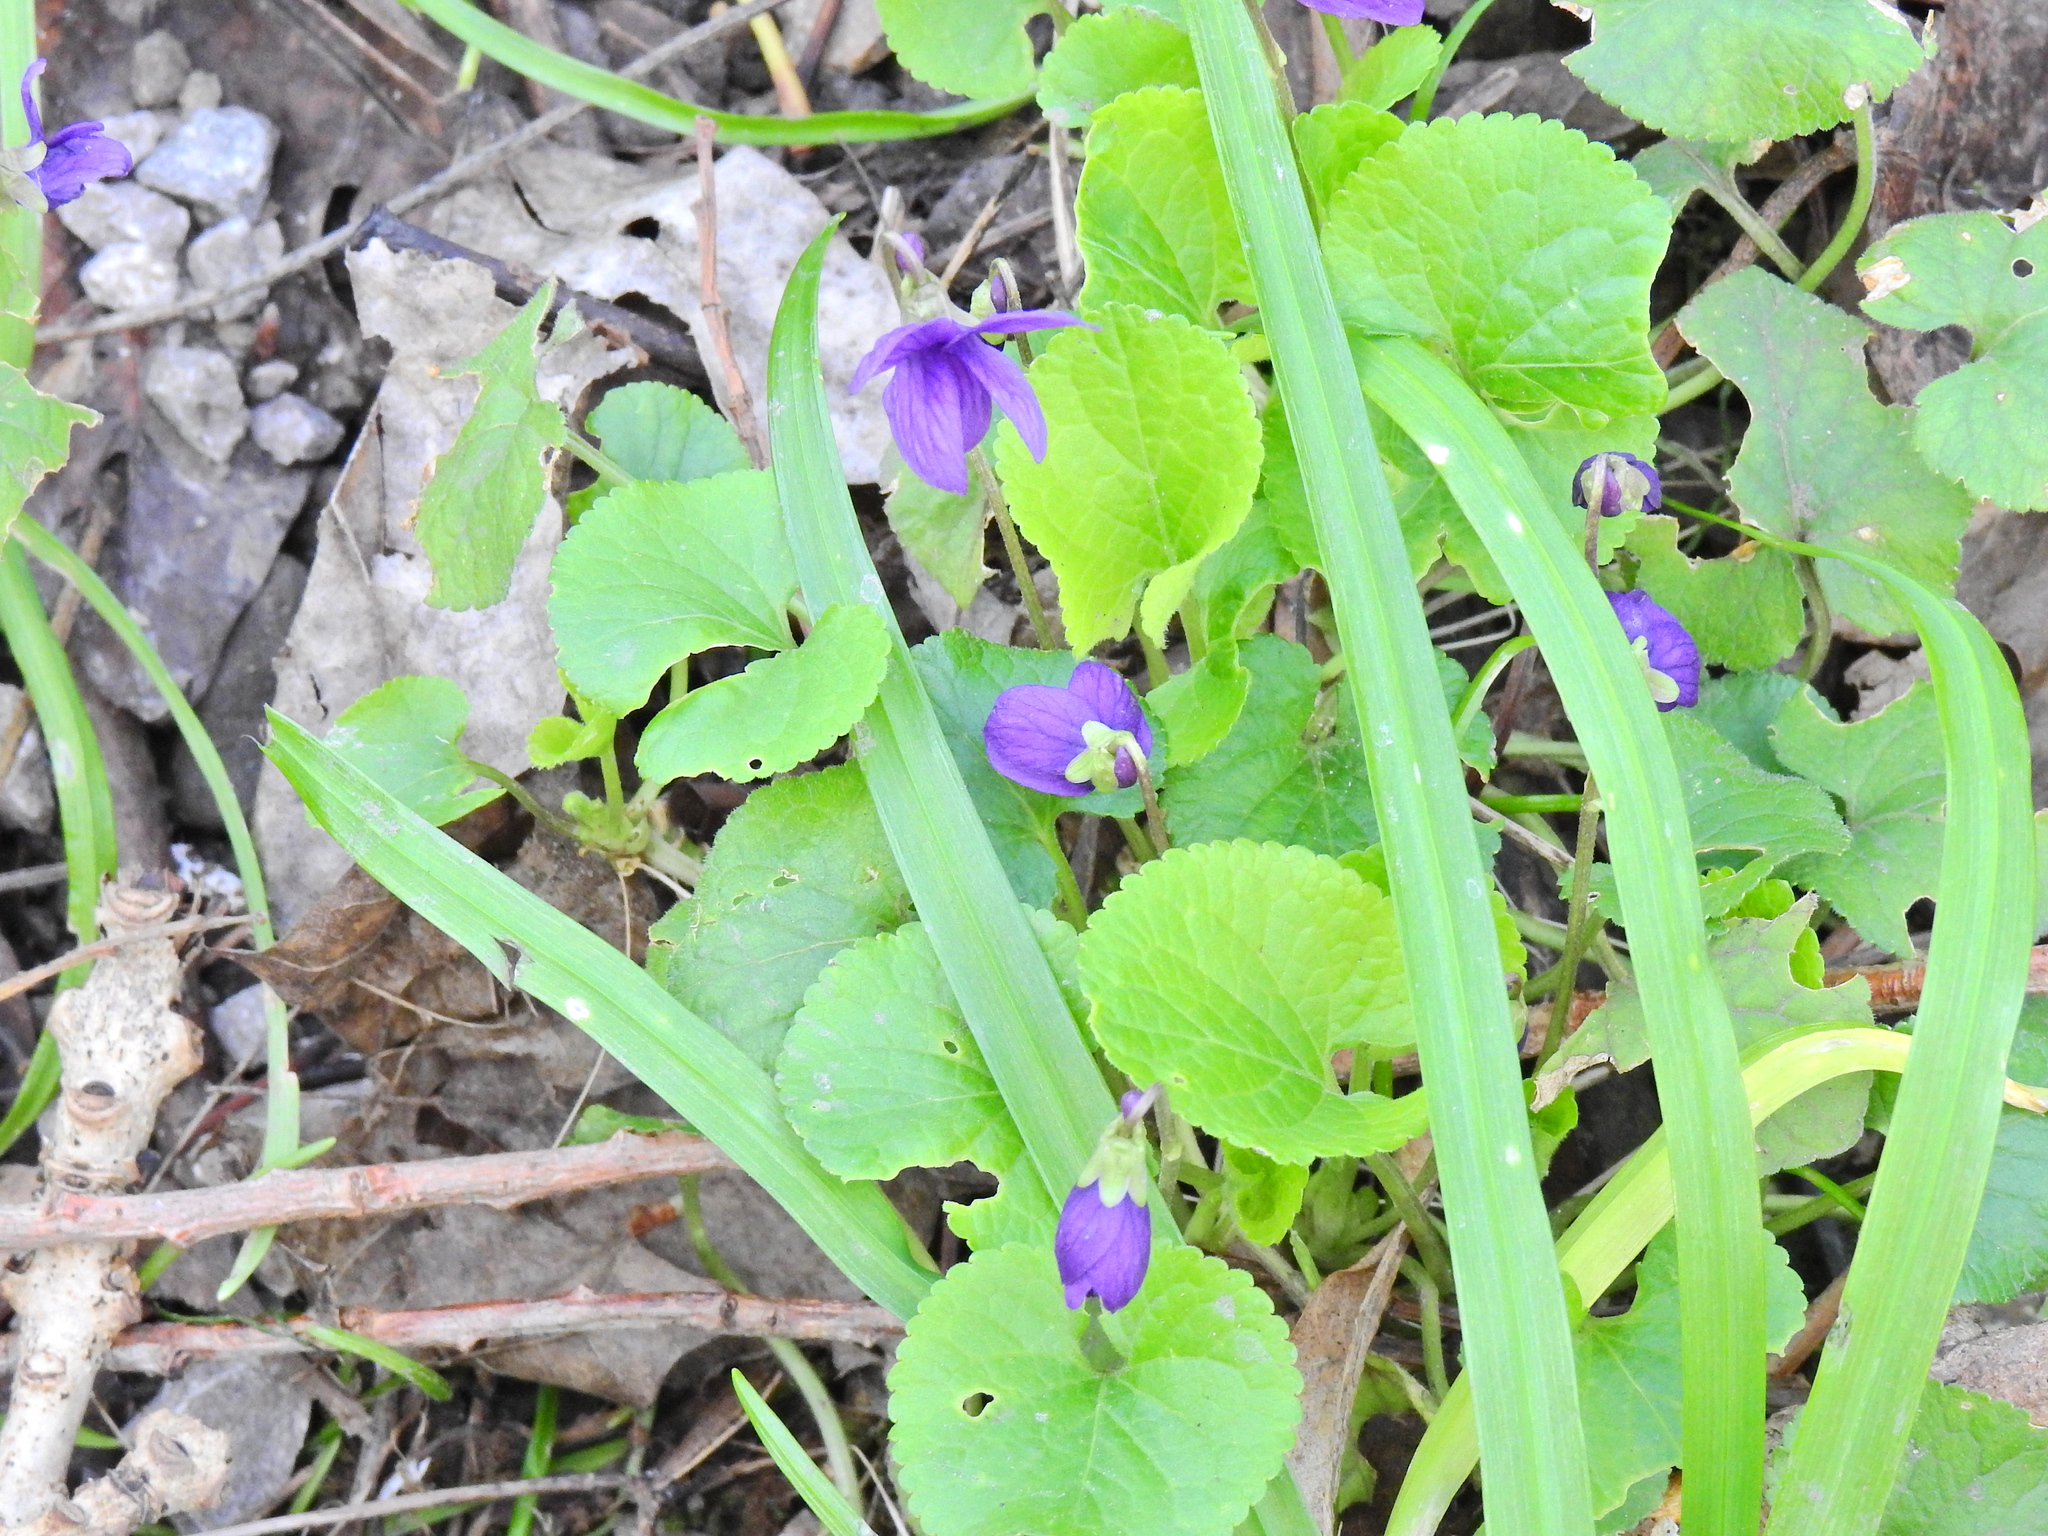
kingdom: Plantae
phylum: Tracheophyta
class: Magnoliopsida
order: Malpighiales
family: Violaceae
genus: Viola
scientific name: Viola odorata
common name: Sweet violet
